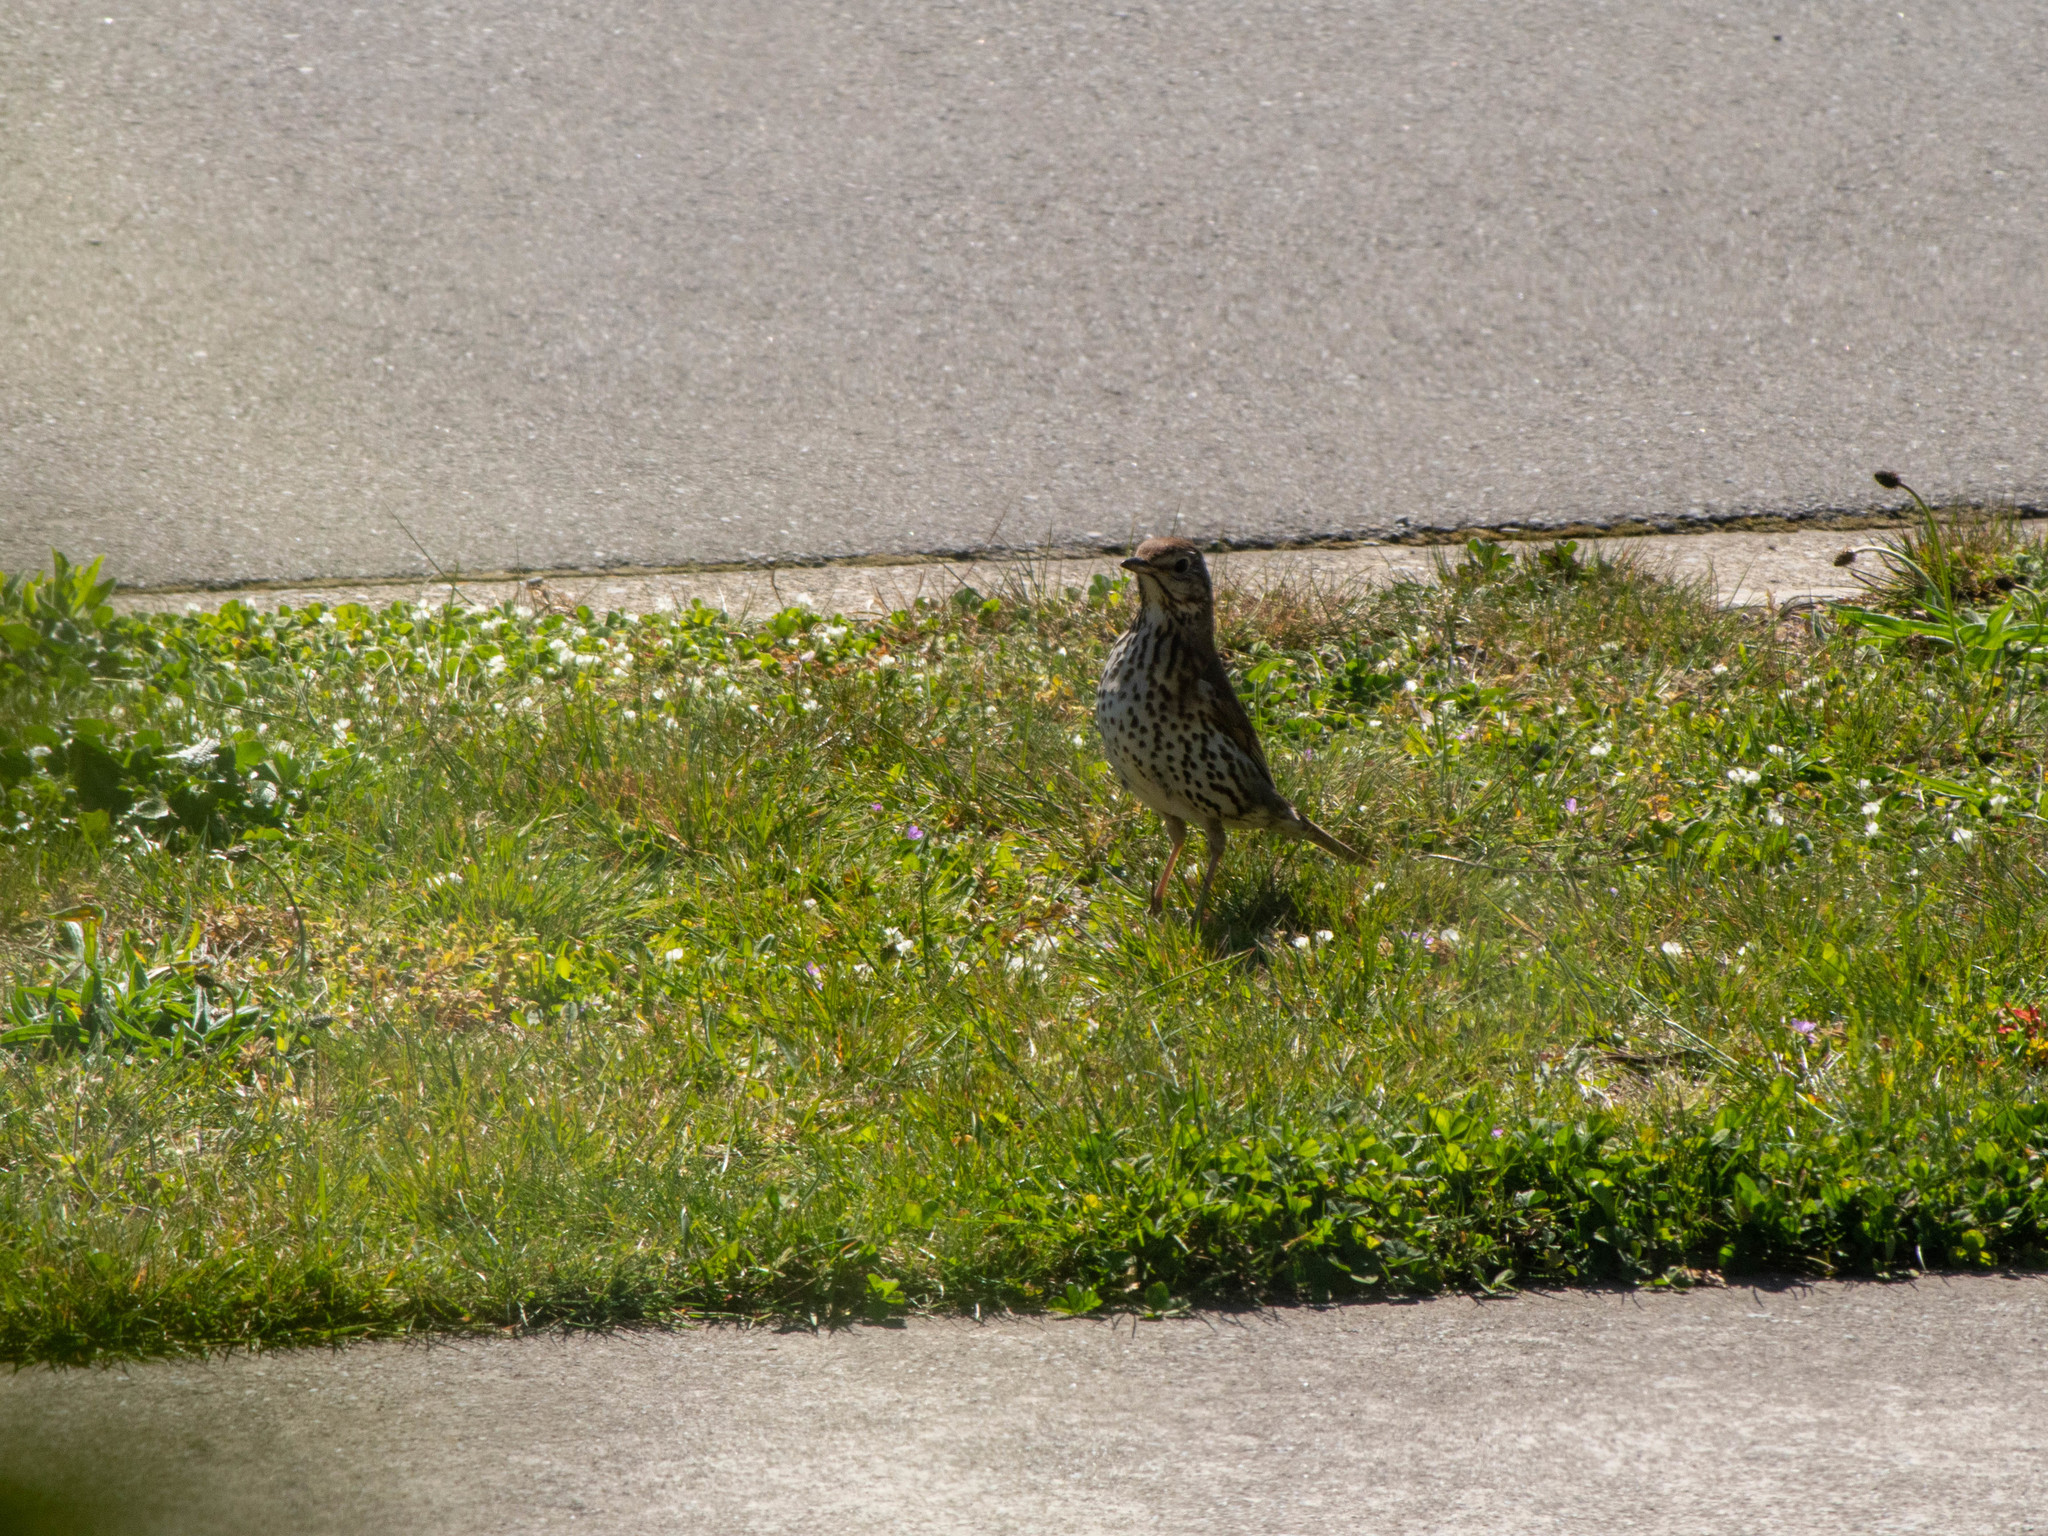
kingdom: Animalia
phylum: Chordata
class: Aves
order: Passeriformes
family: Turdidae
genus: Turdus
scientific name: Turdus philomelos
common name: Song thrush
